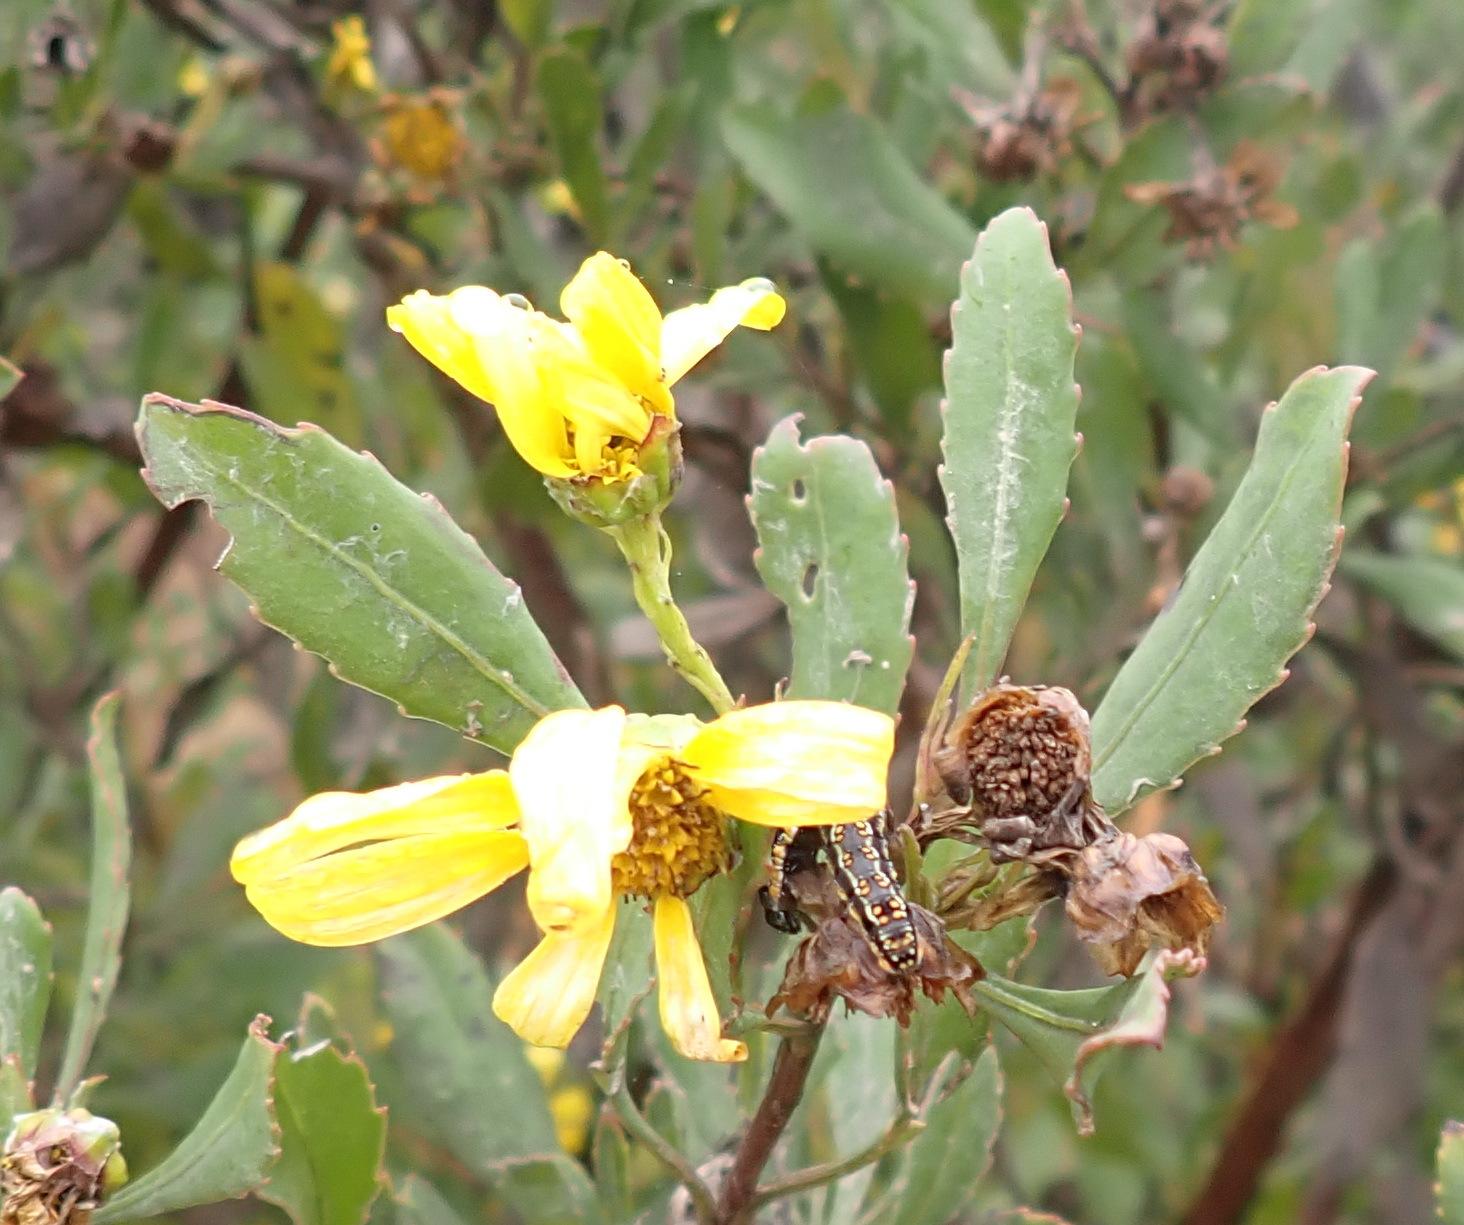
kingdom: Plantae
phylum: Tracheophyta
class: Magnoliopsida
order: Asterales
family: Asteraceae
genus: Osteospermum
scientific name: Osteospermum moniliferum
